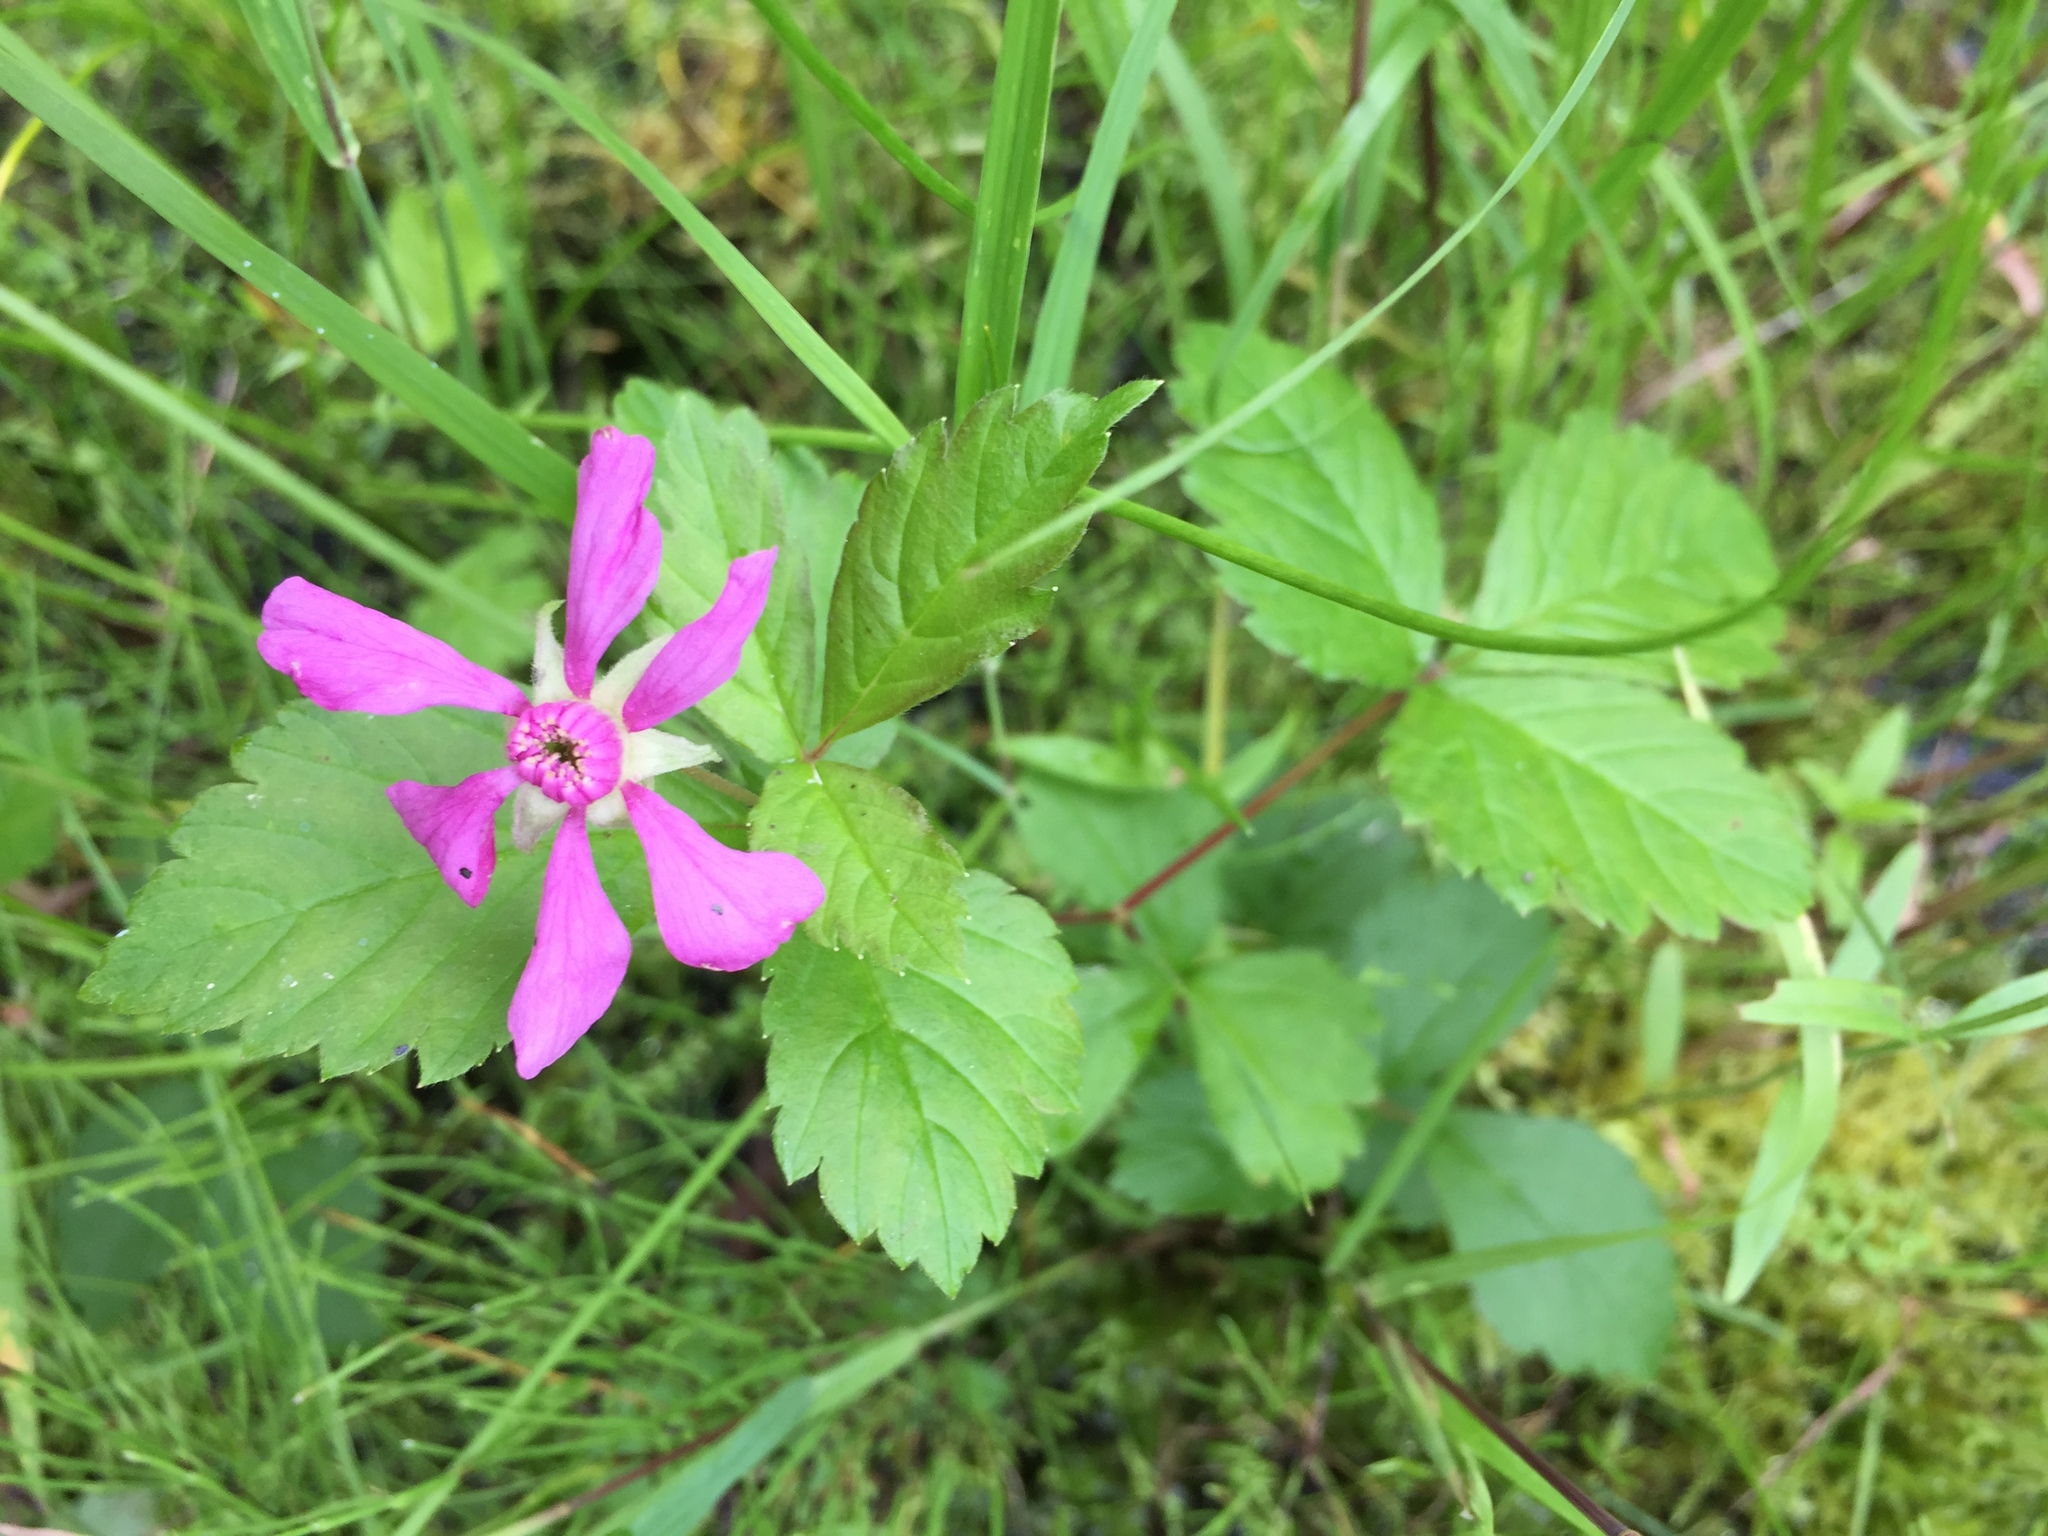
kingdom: Plantae
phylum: Tracheophyta
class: Magnoliopsida
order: Rosales
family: Rosaceae
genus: Rubus
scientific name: Rubus arcticus
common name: Arctic bramble
